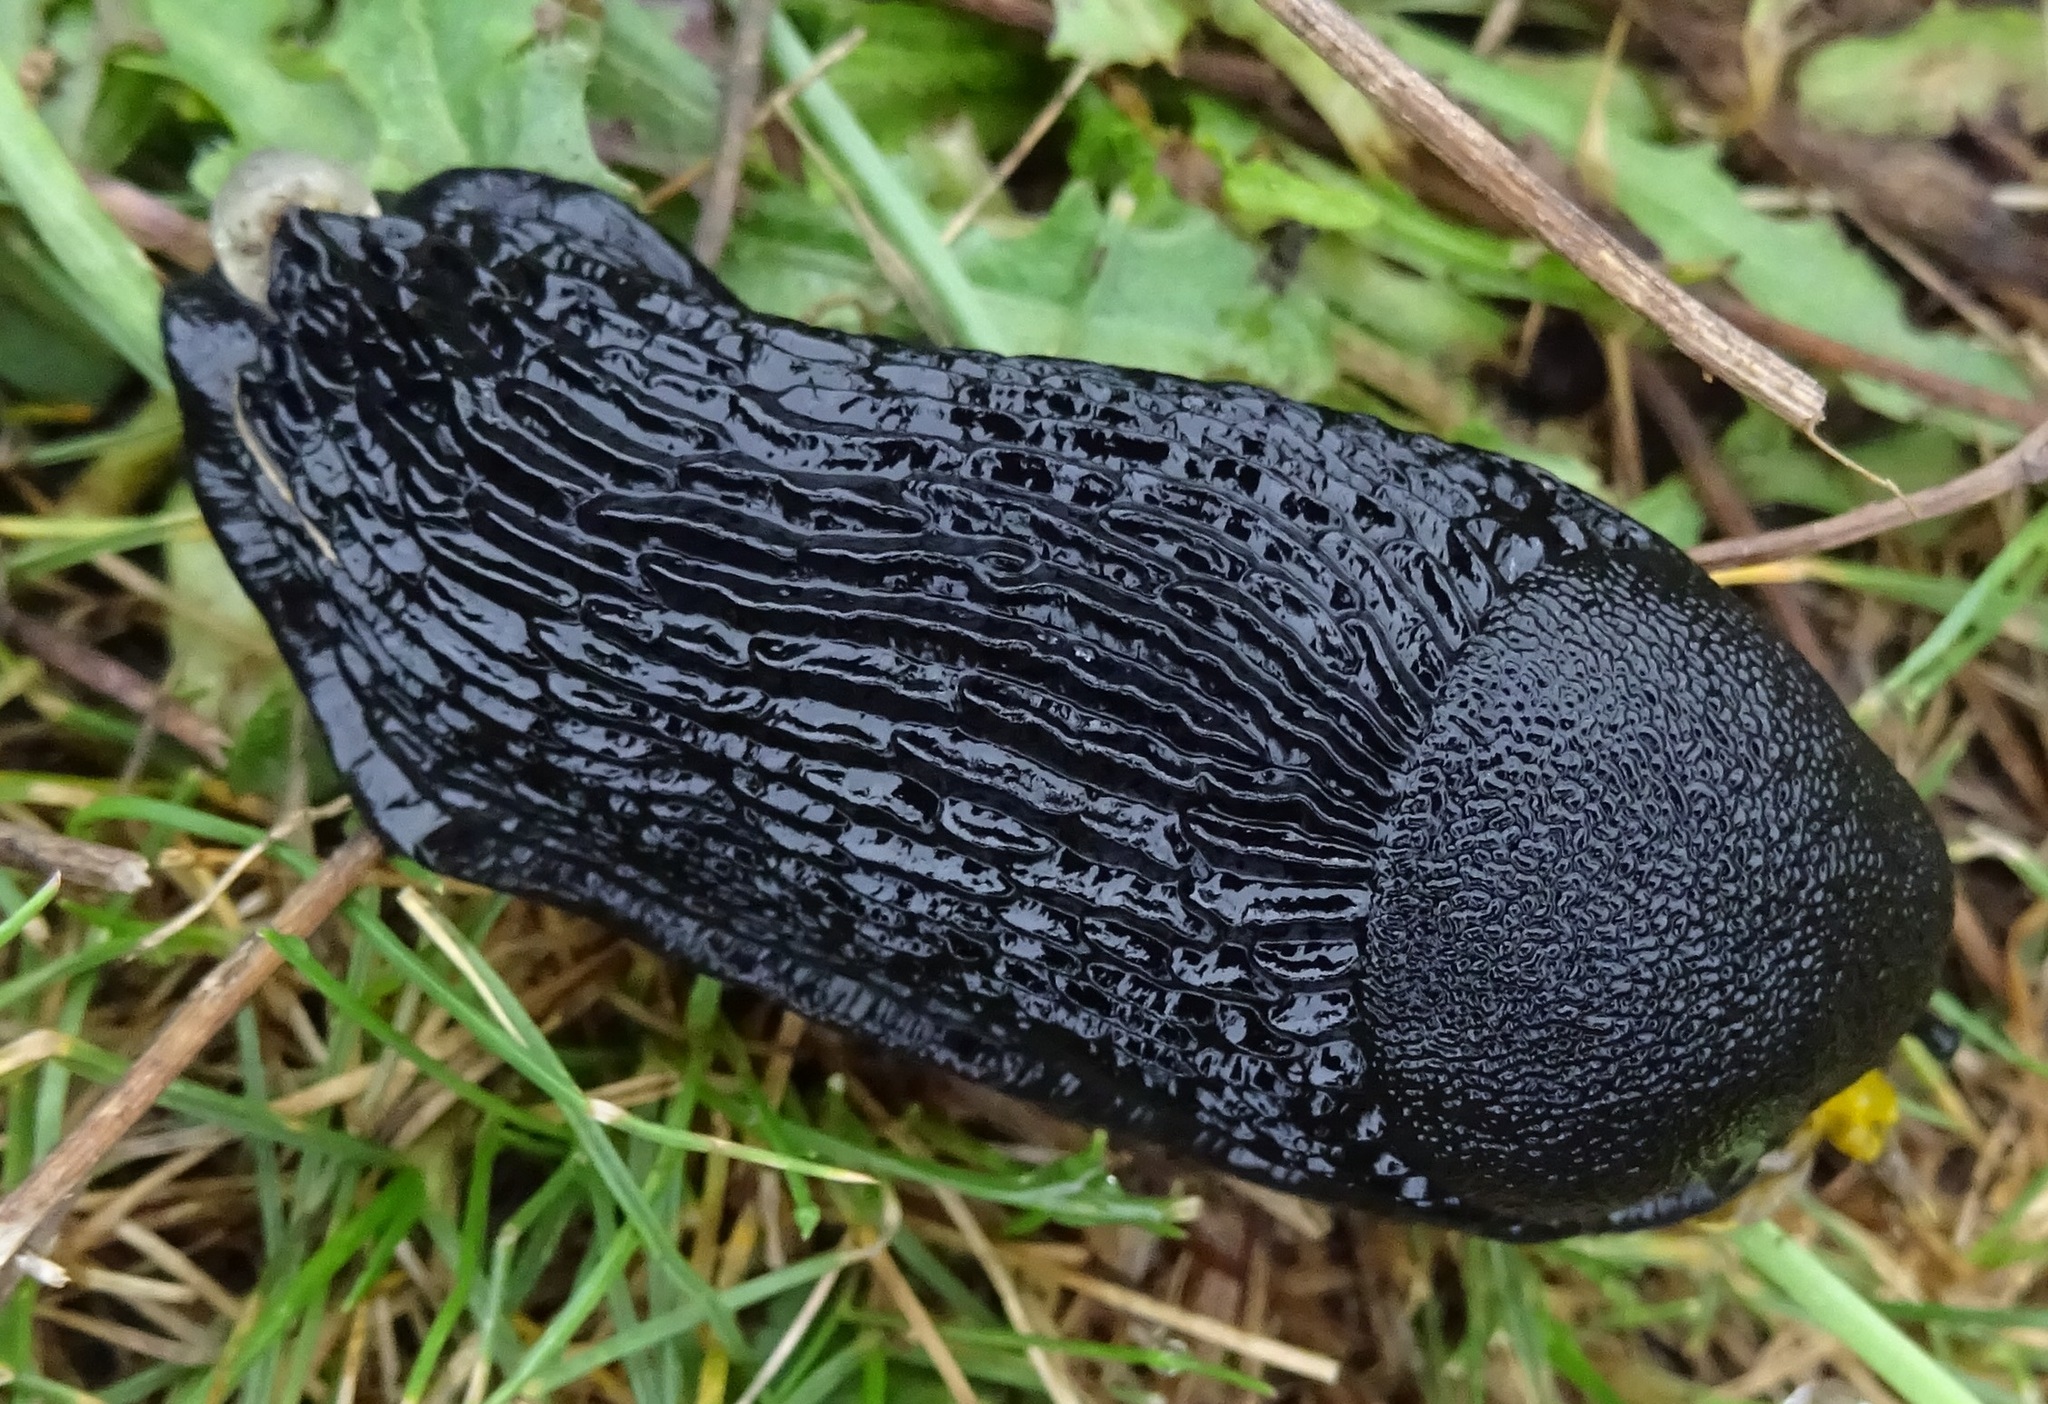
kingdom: Animalia
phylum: Mollusca
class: Gastropoda
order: Stylommatophora
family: Arionidae
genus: Arion
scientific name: Arion
